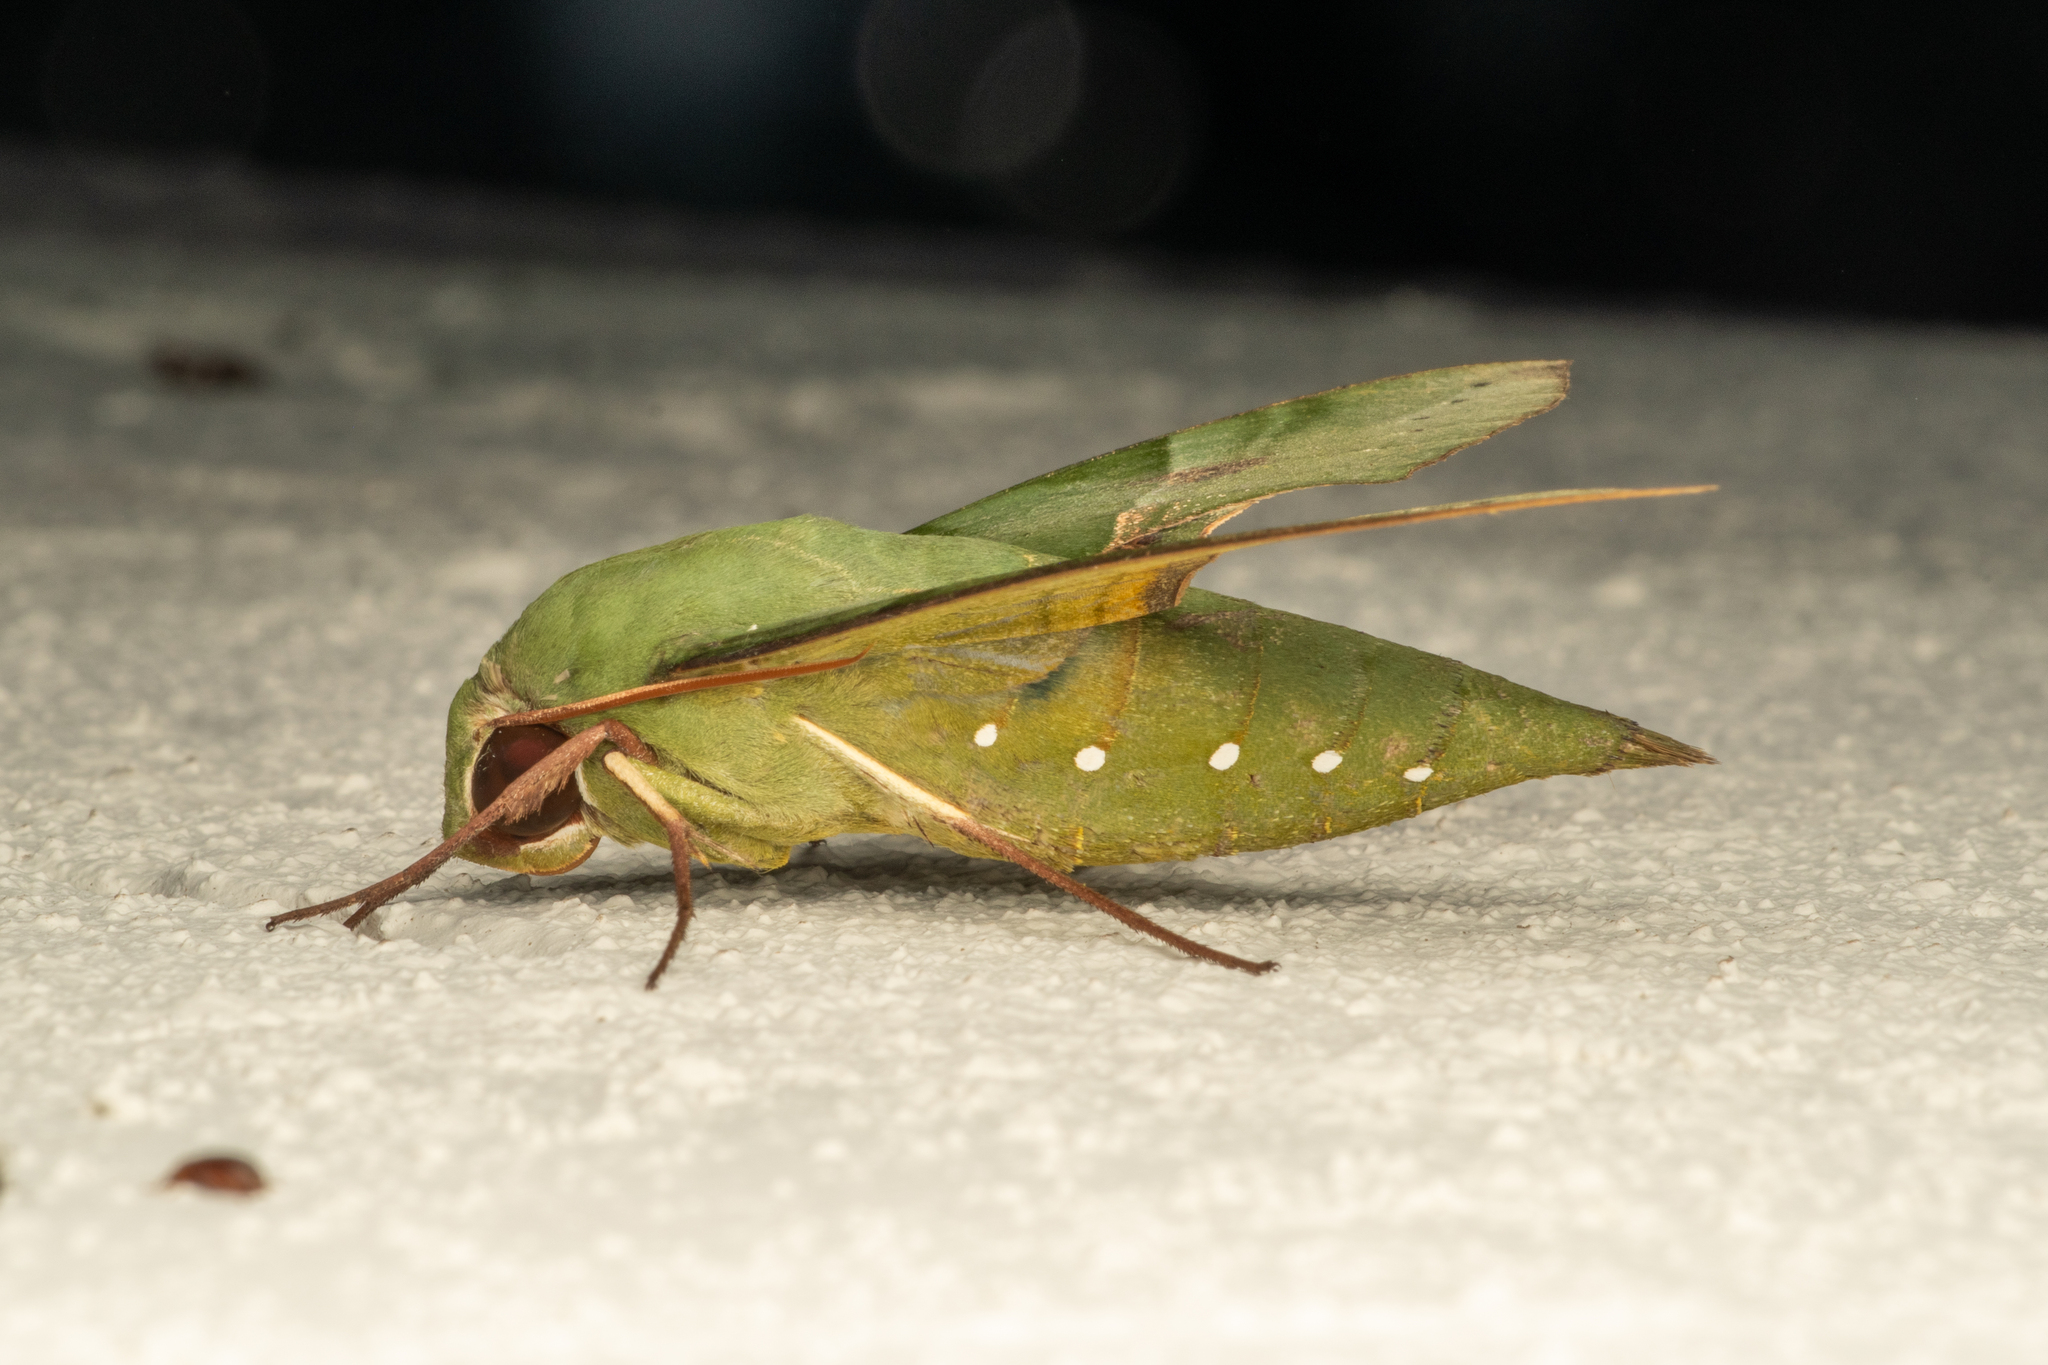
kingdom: Animalia
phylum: Arthropoda
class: Insecta
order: Lepidoptera
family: Sphingidae
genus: Eumorpha
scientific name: Eumorpha labruscae
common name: Gaudy sphinx
